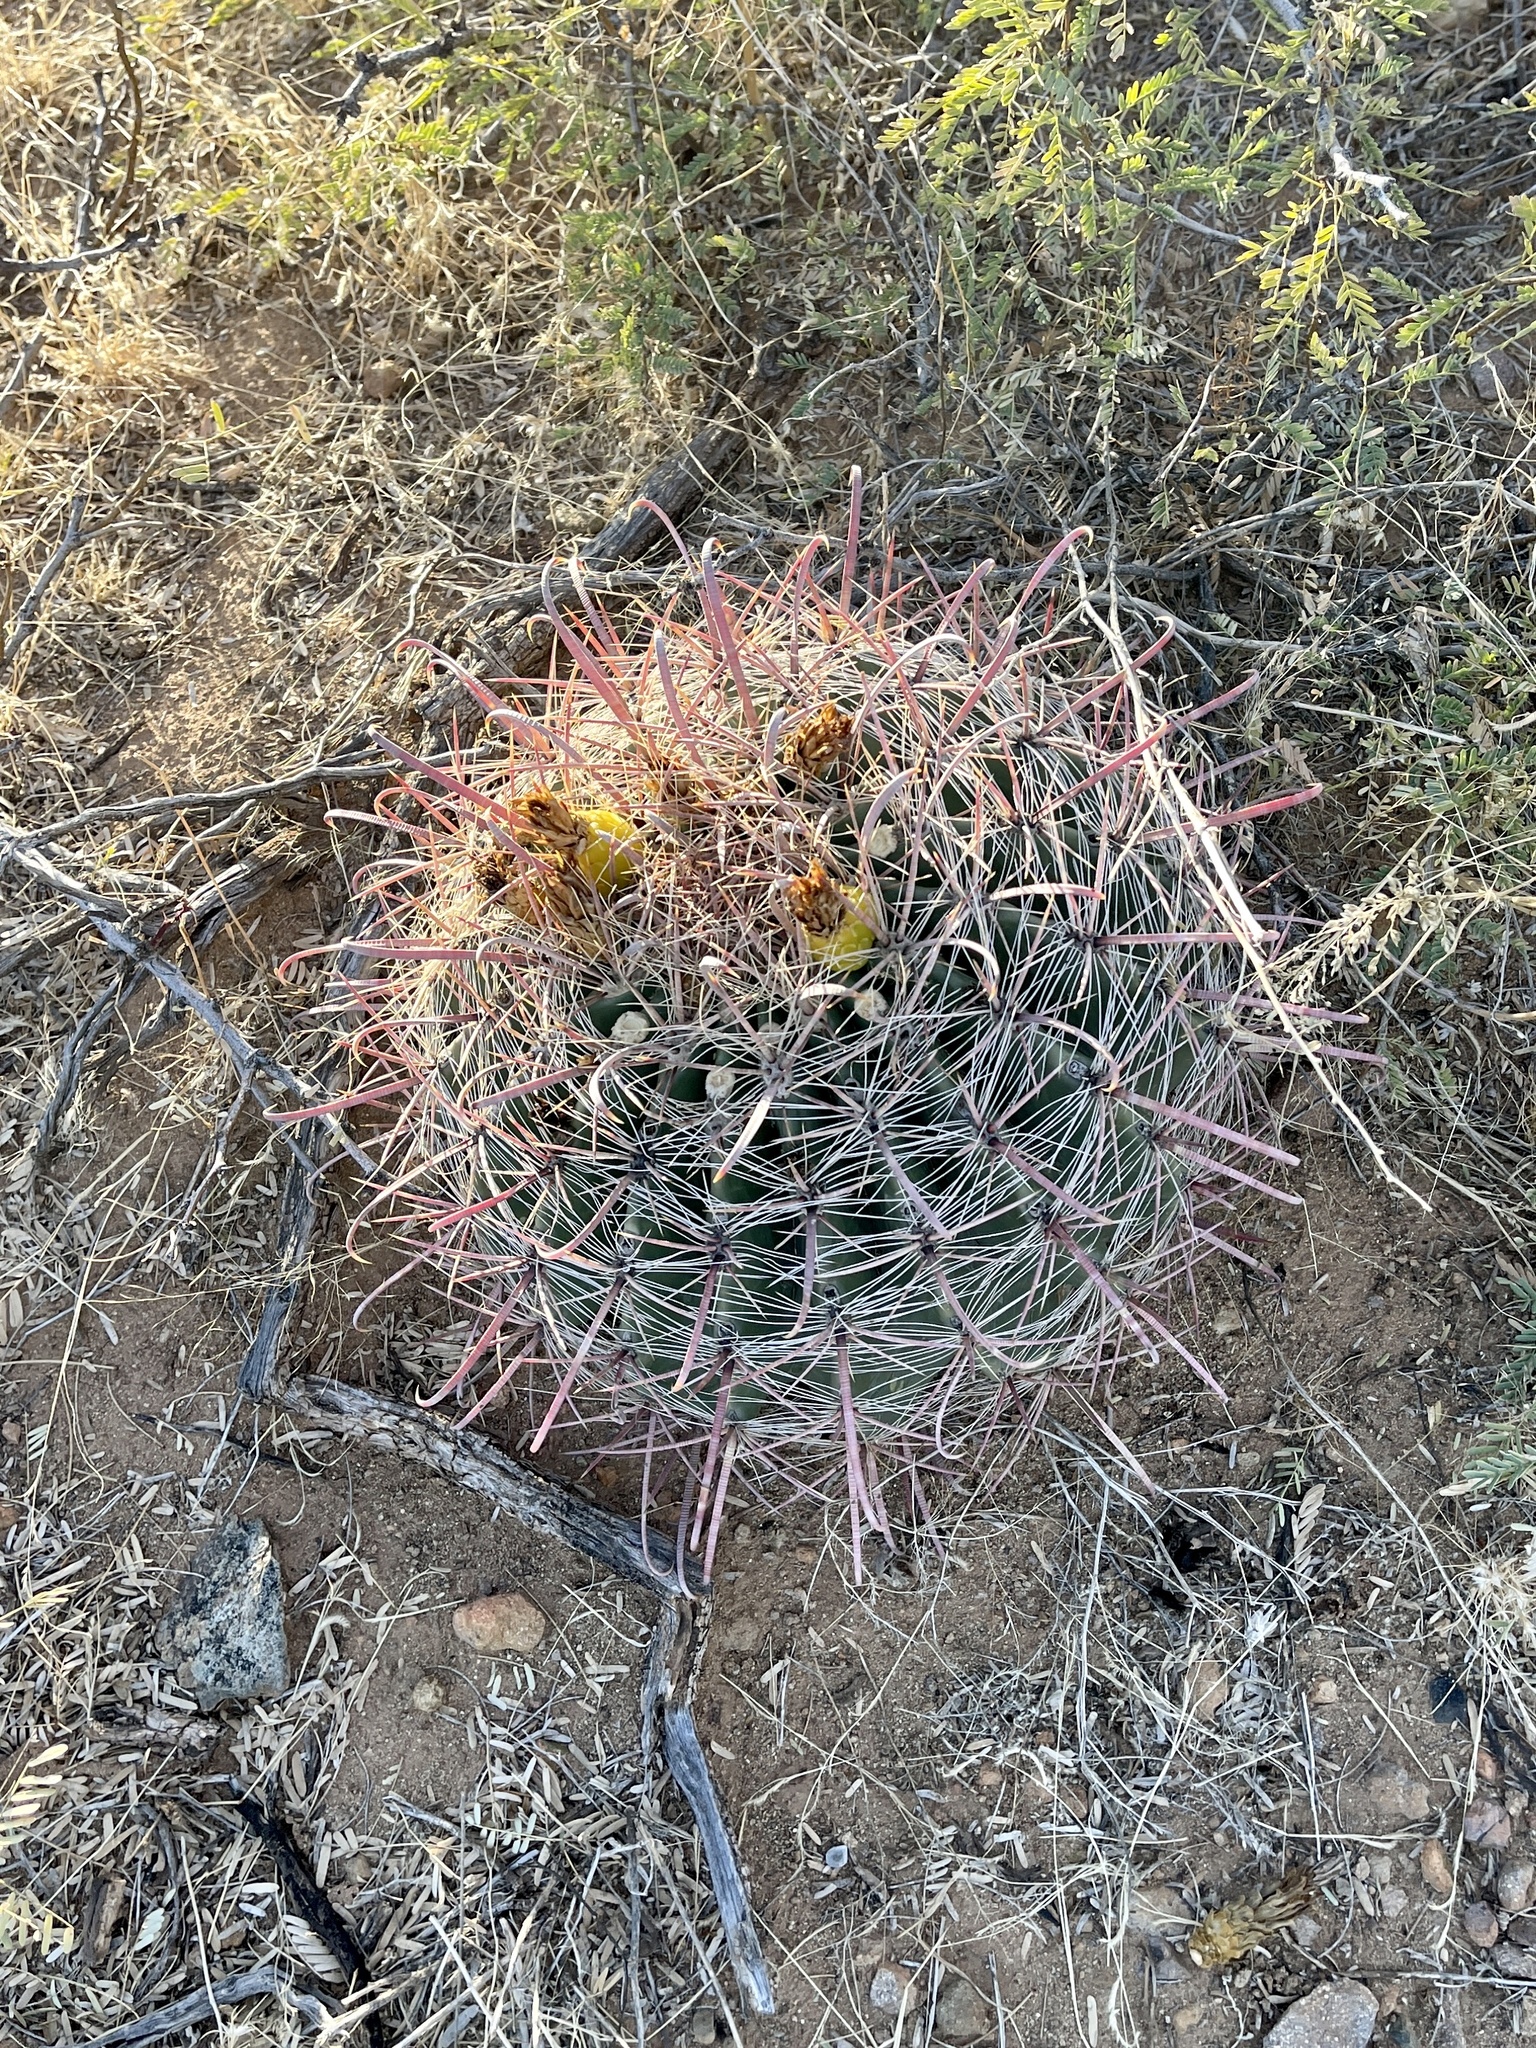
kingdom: Plantae
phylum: Tracheophyta
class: Magnoliopsida
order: Caryophyllales
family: Cactaceae
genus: Ferocactus
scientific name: Ferocactus wislizeni
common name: Candy barrel cactus
